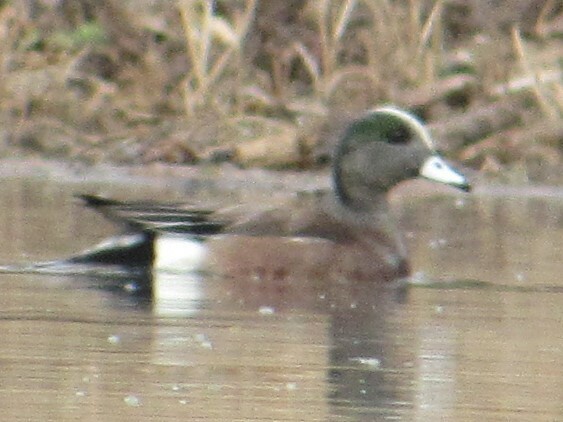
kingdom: Animalia
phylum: Chordata
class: Aves
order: Anseriformes
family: Anatidae
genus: Mareca
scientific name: Mareca americana
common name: American wigeon
